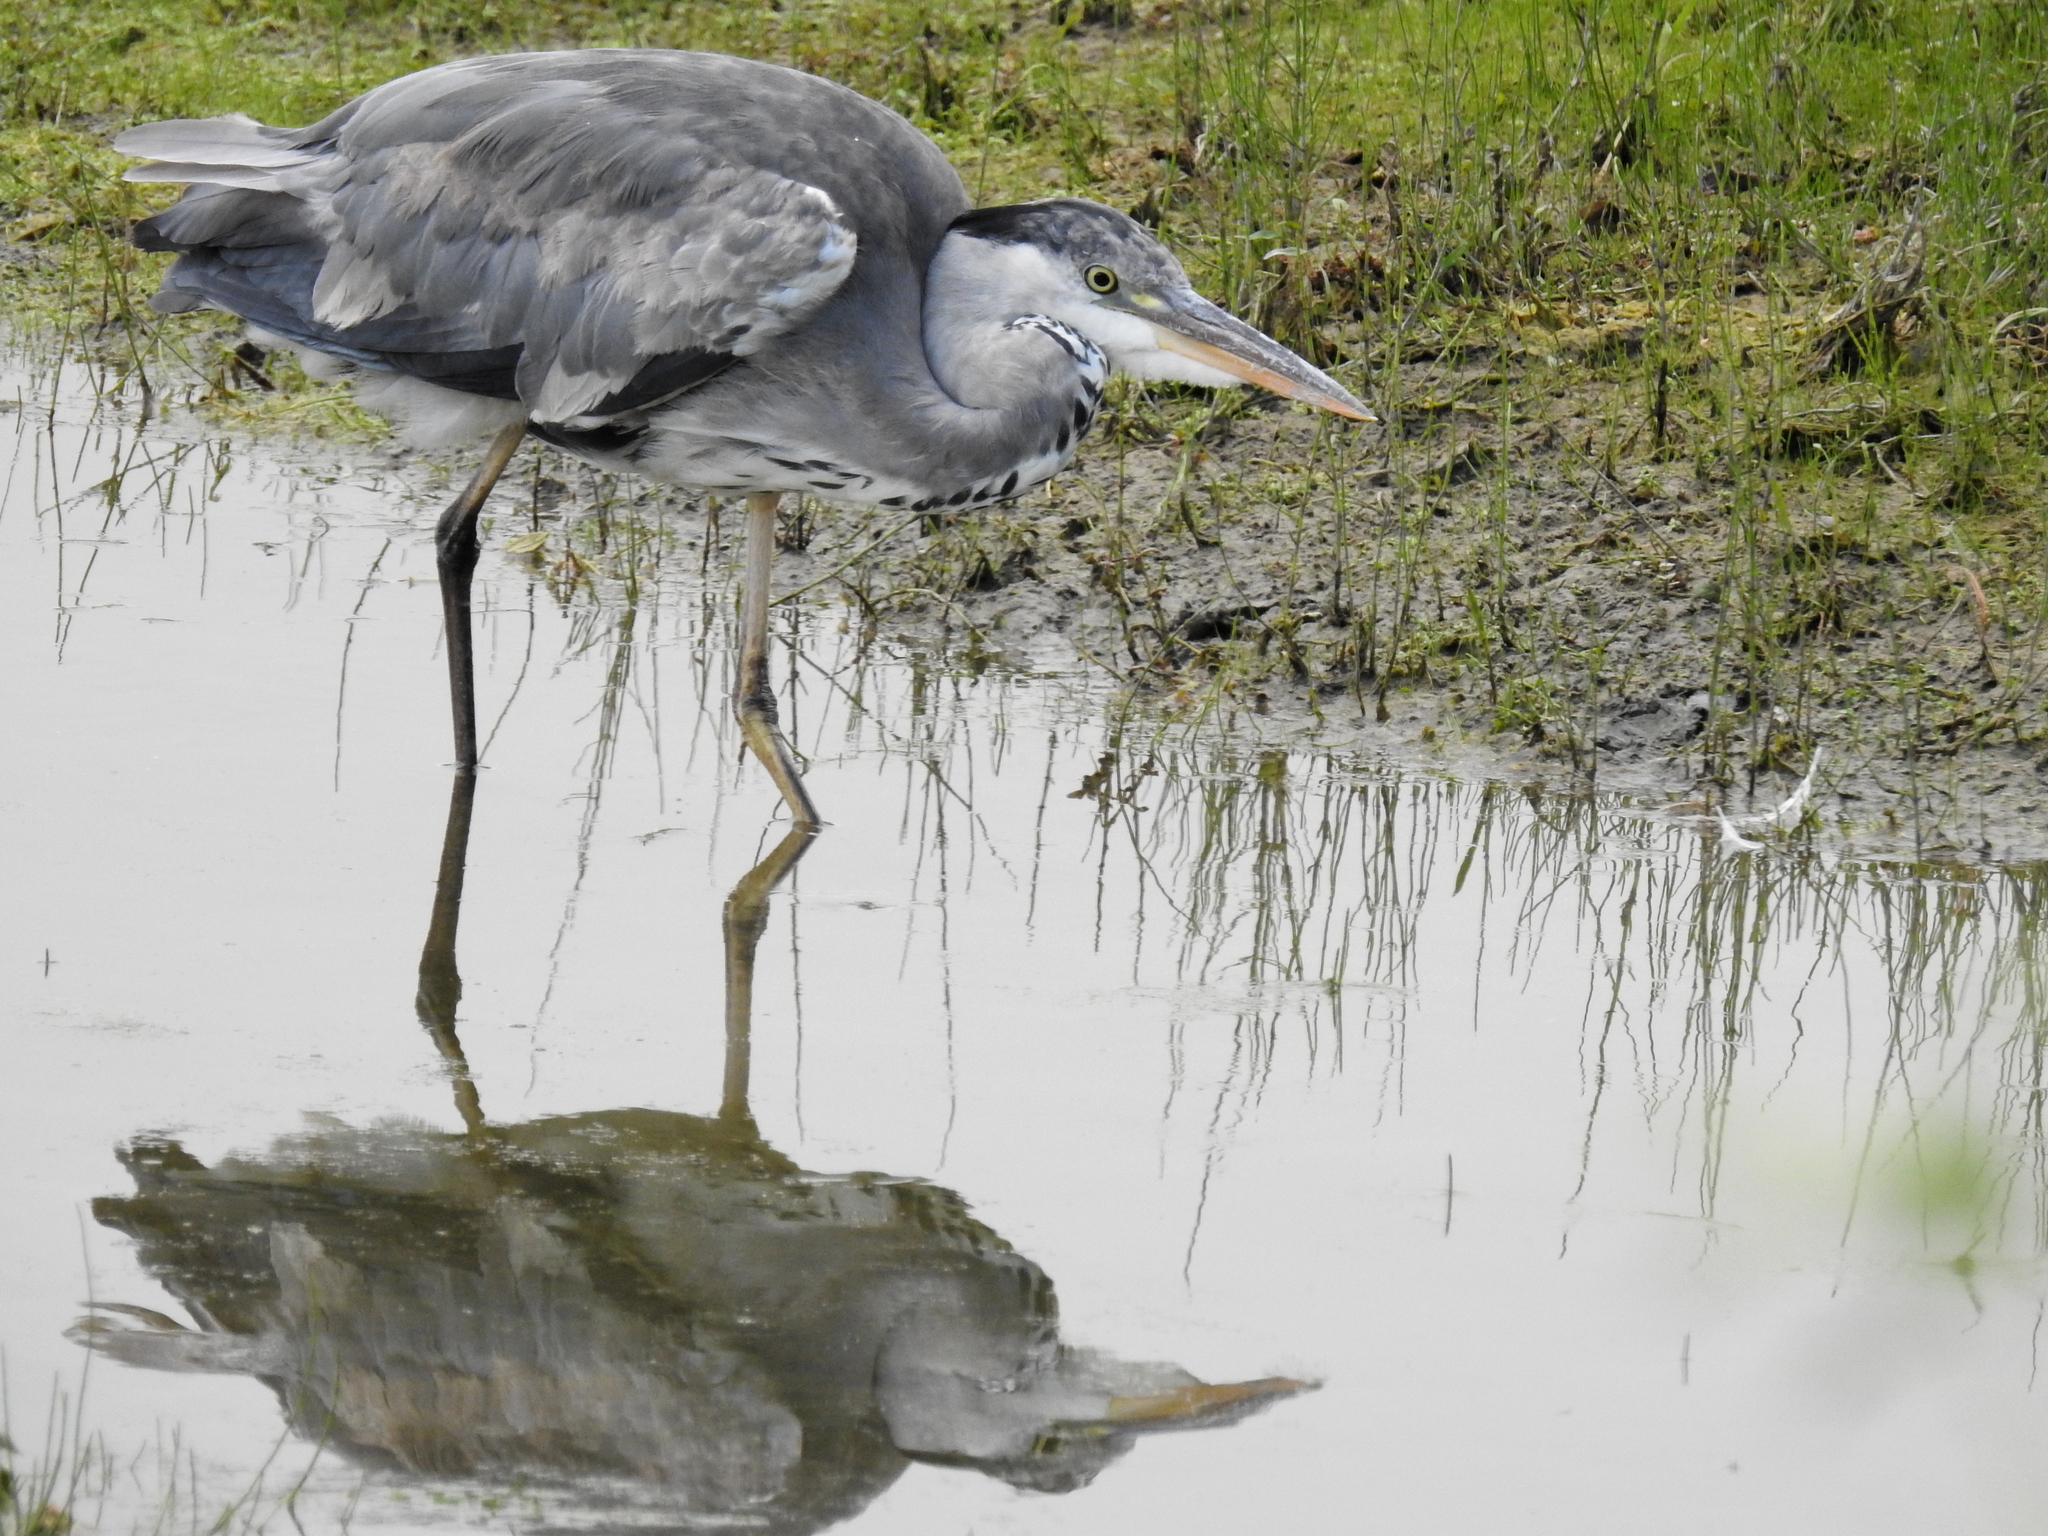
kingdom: Animalia
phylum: Chordata
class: Aves
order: Pelecaniformes
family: Ardeidae
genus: Ardea
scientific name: Ardea cinerea
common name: Grey heron
